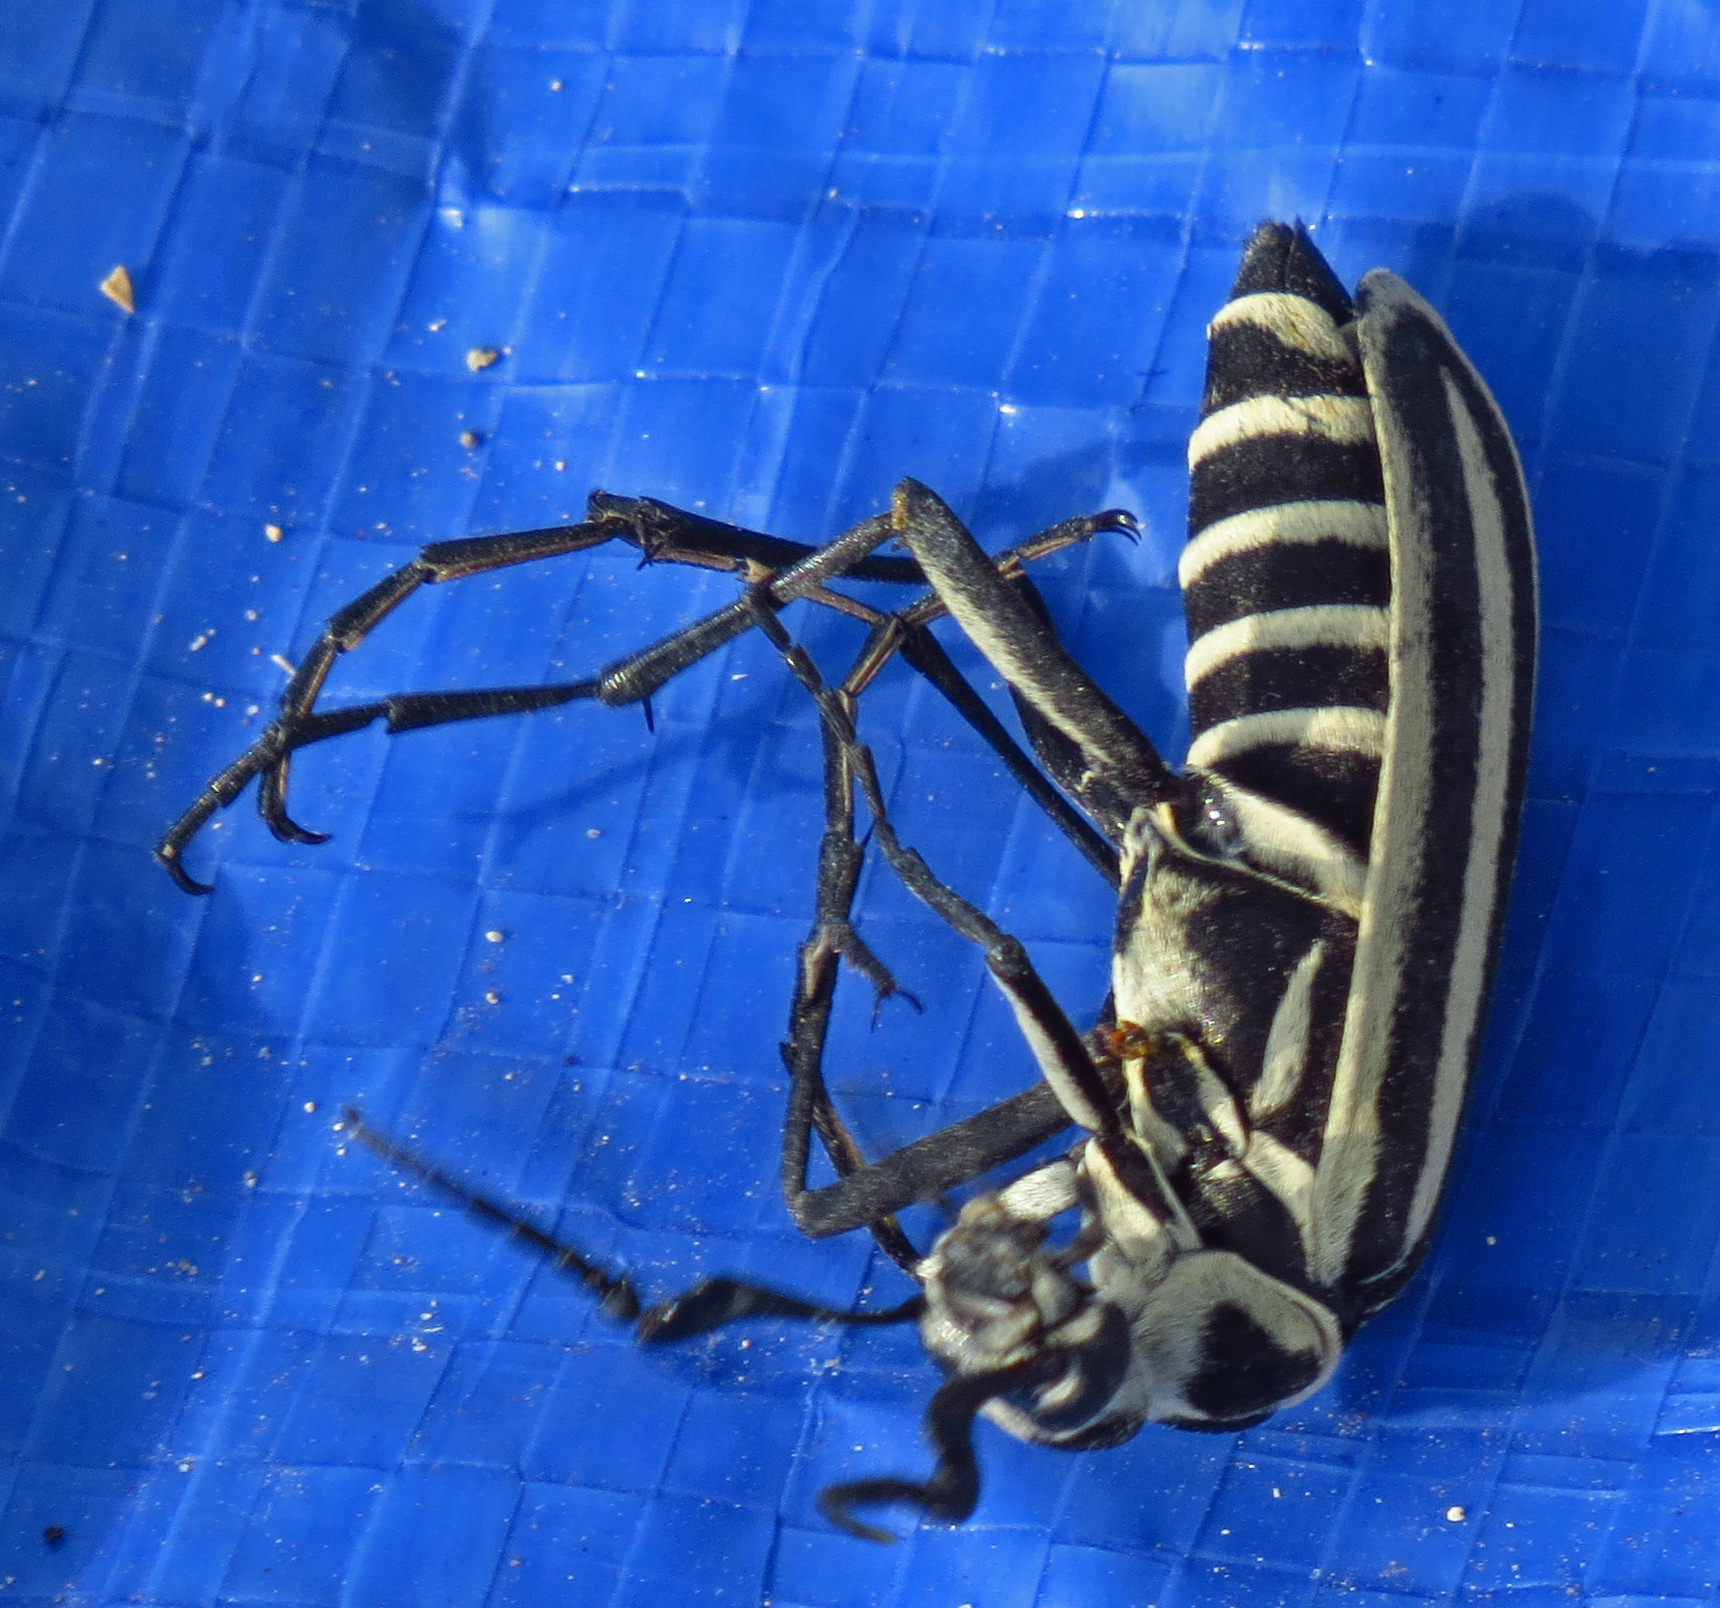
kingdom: Animalia
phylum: Arthropoda
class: Insecta
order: Coleoptera
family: Meloidae
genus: Epicauta
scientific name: Epicauta atrivittata
